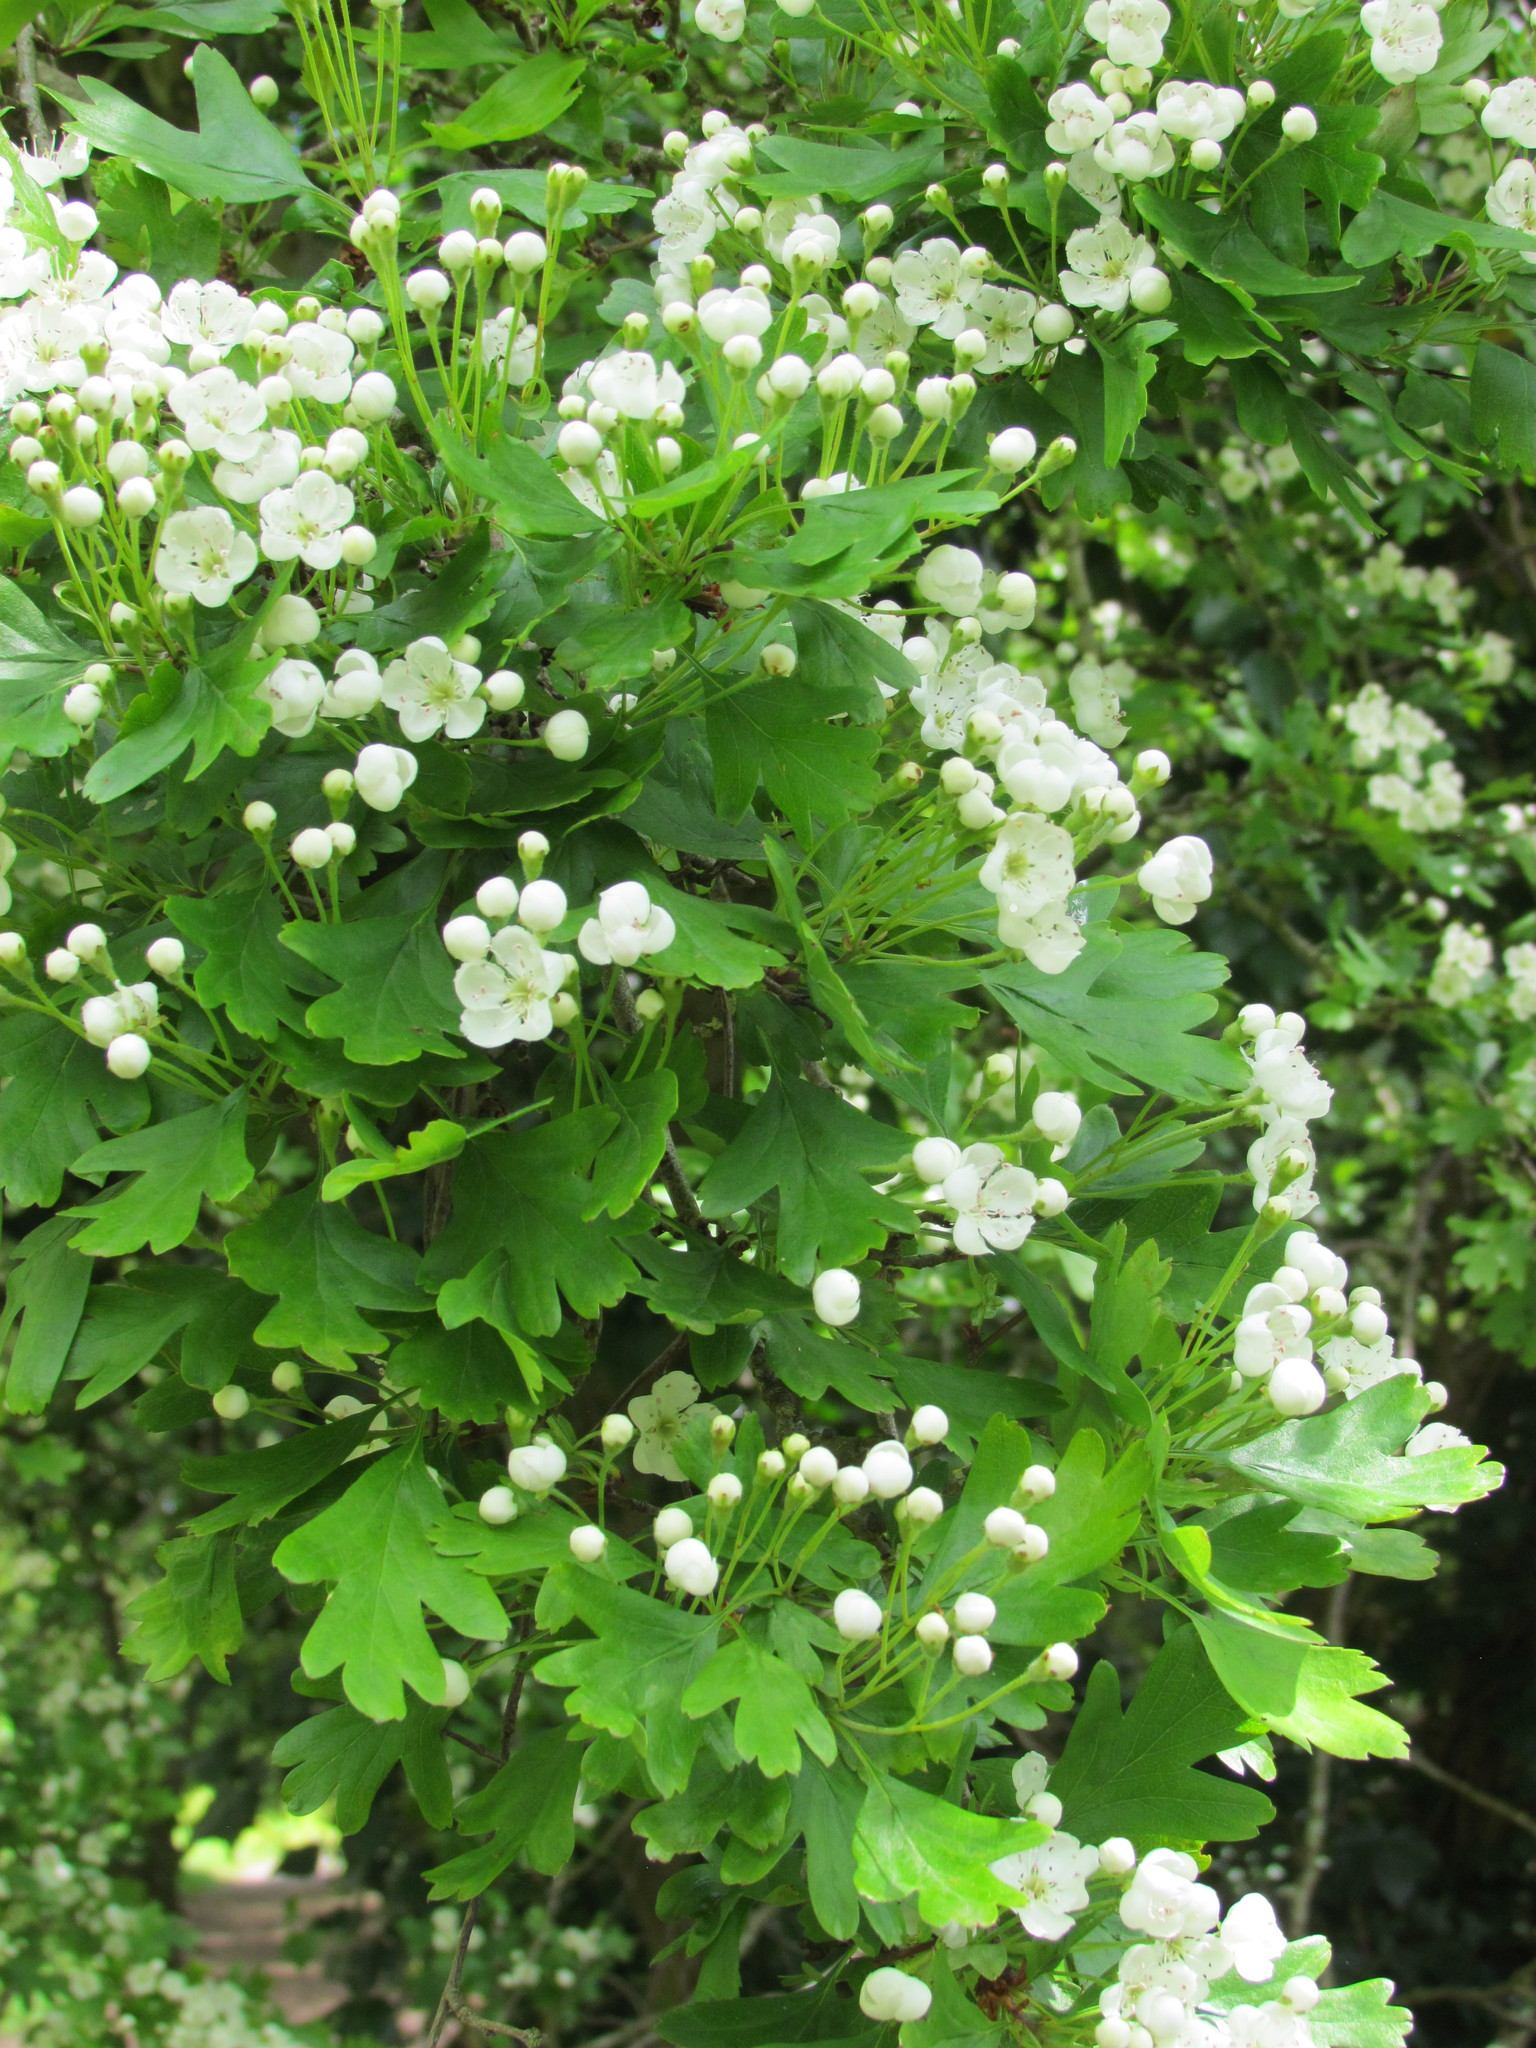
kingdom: Plantae
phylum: Tracheophyta
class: Magnoliopsida
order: Rosales
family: Rosaceae
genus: Crataegus
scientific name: Crataegus monogyna
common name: Hawthorn
